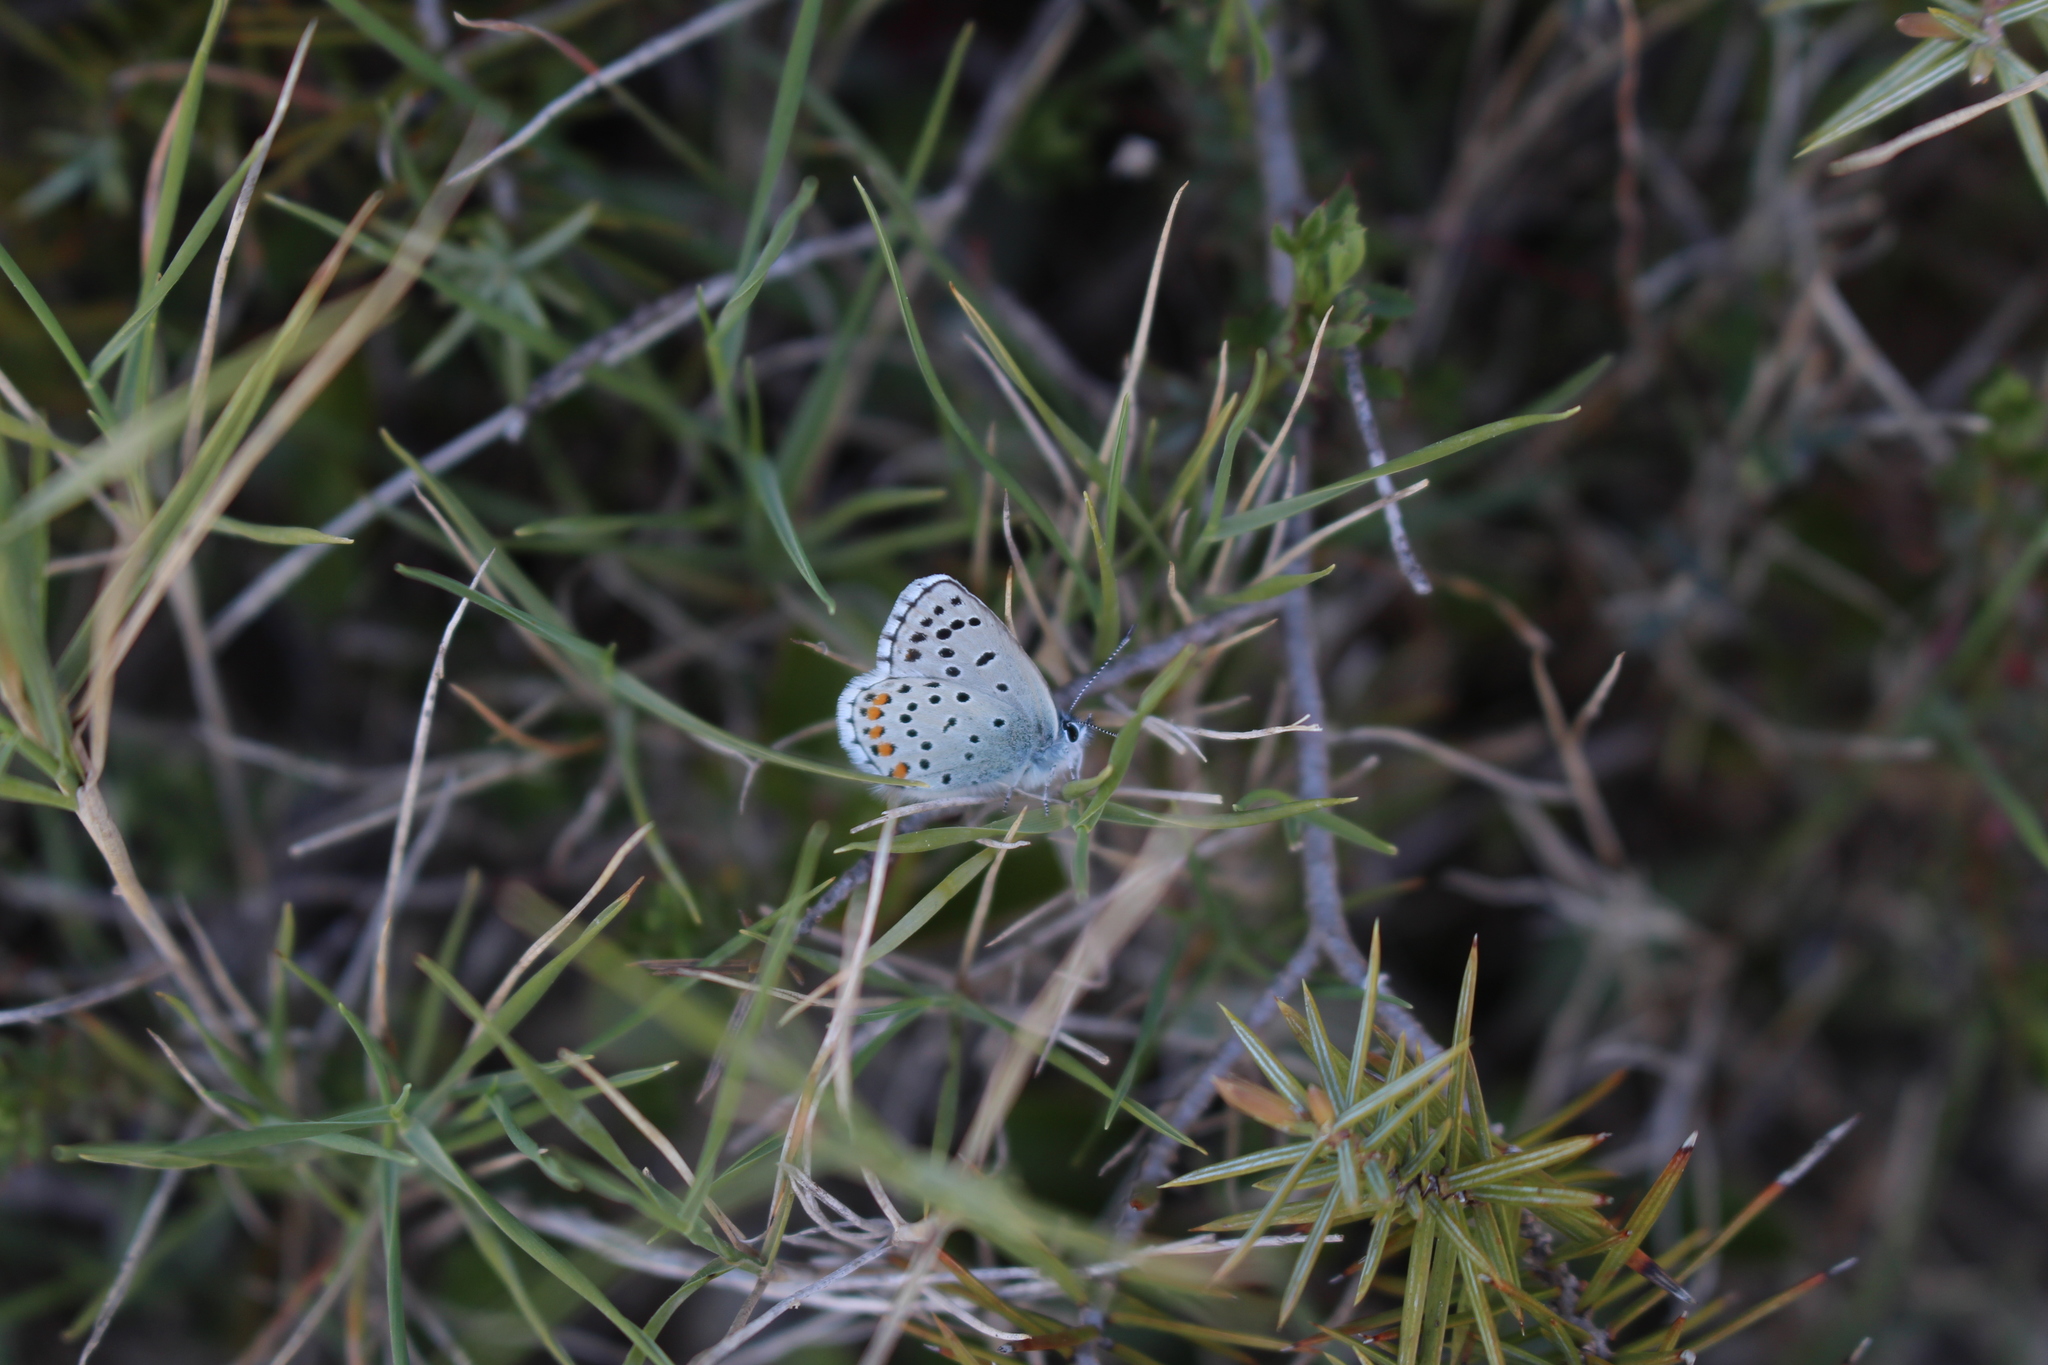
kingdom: Animalia
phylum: Arthropoda
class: Insecta
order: Lepidoptera
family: Lycaenidae
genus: Pseudophilotes
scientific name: Pseudophilotes baton
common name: Baton blue
